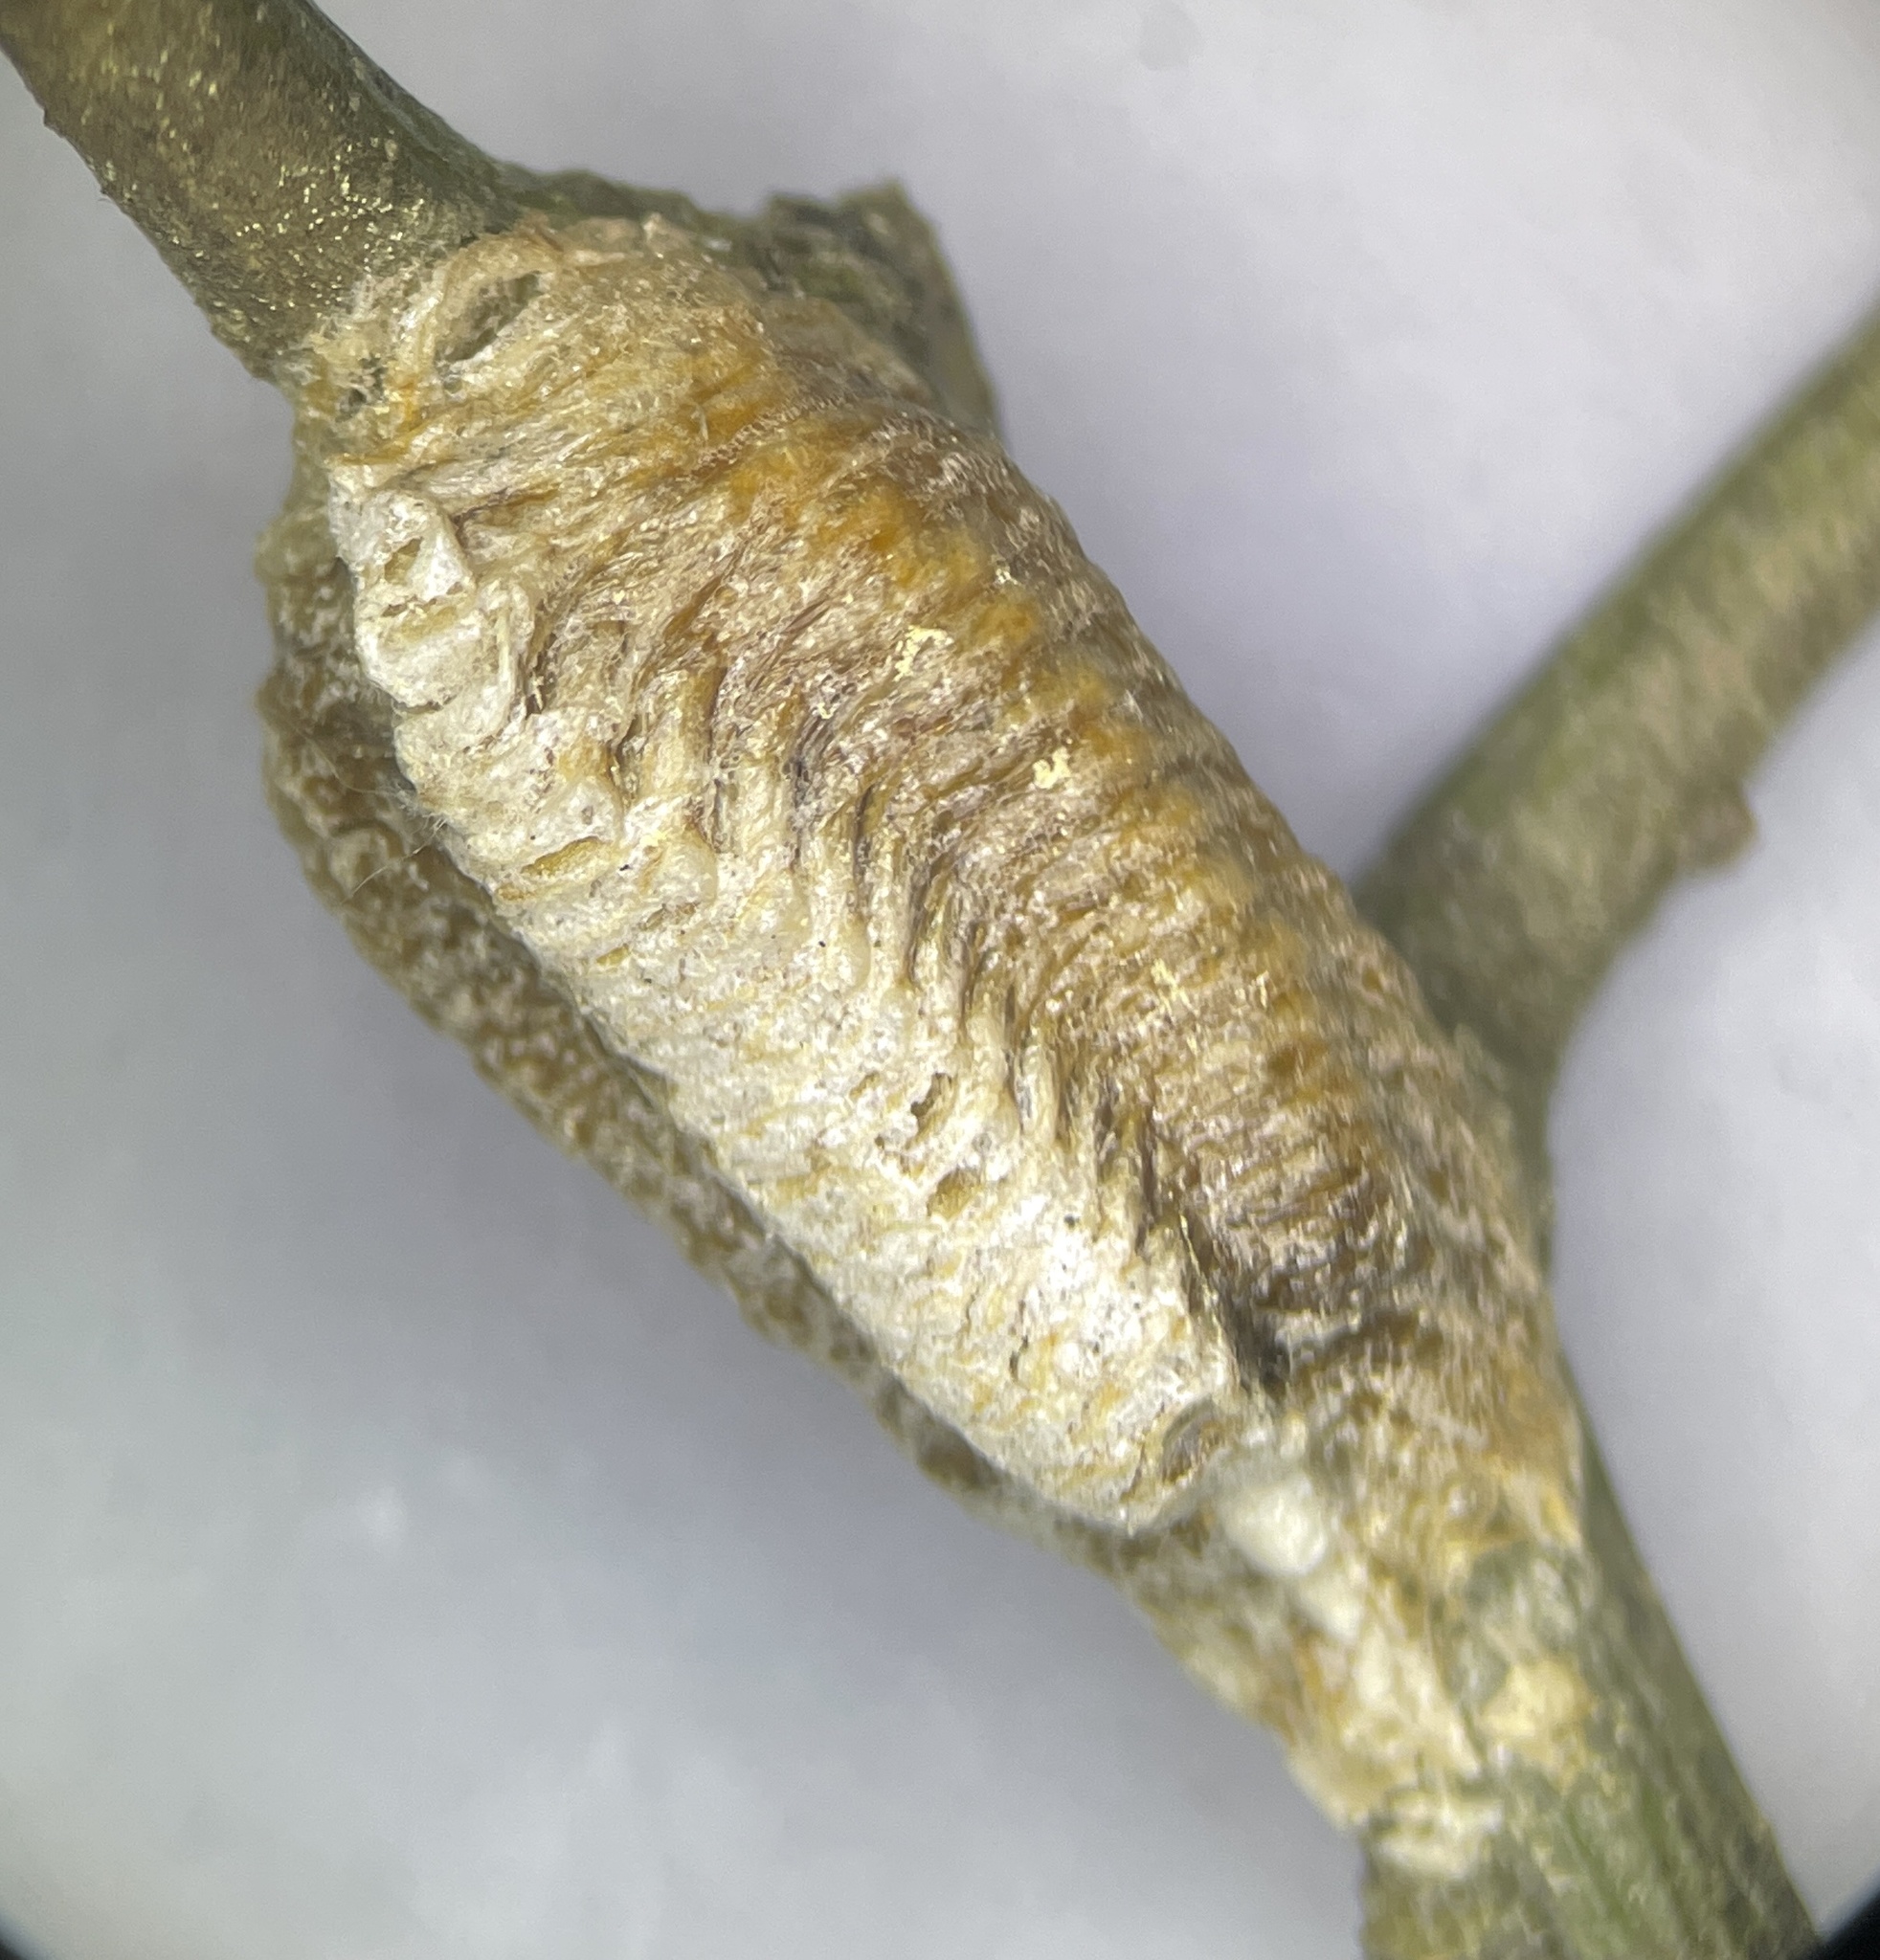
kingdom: Animalia
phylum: Arthropoda
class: Insecta
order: Mantodea
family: Mantidae
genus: Stagmomantis
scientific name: Stagmomantis carolina
